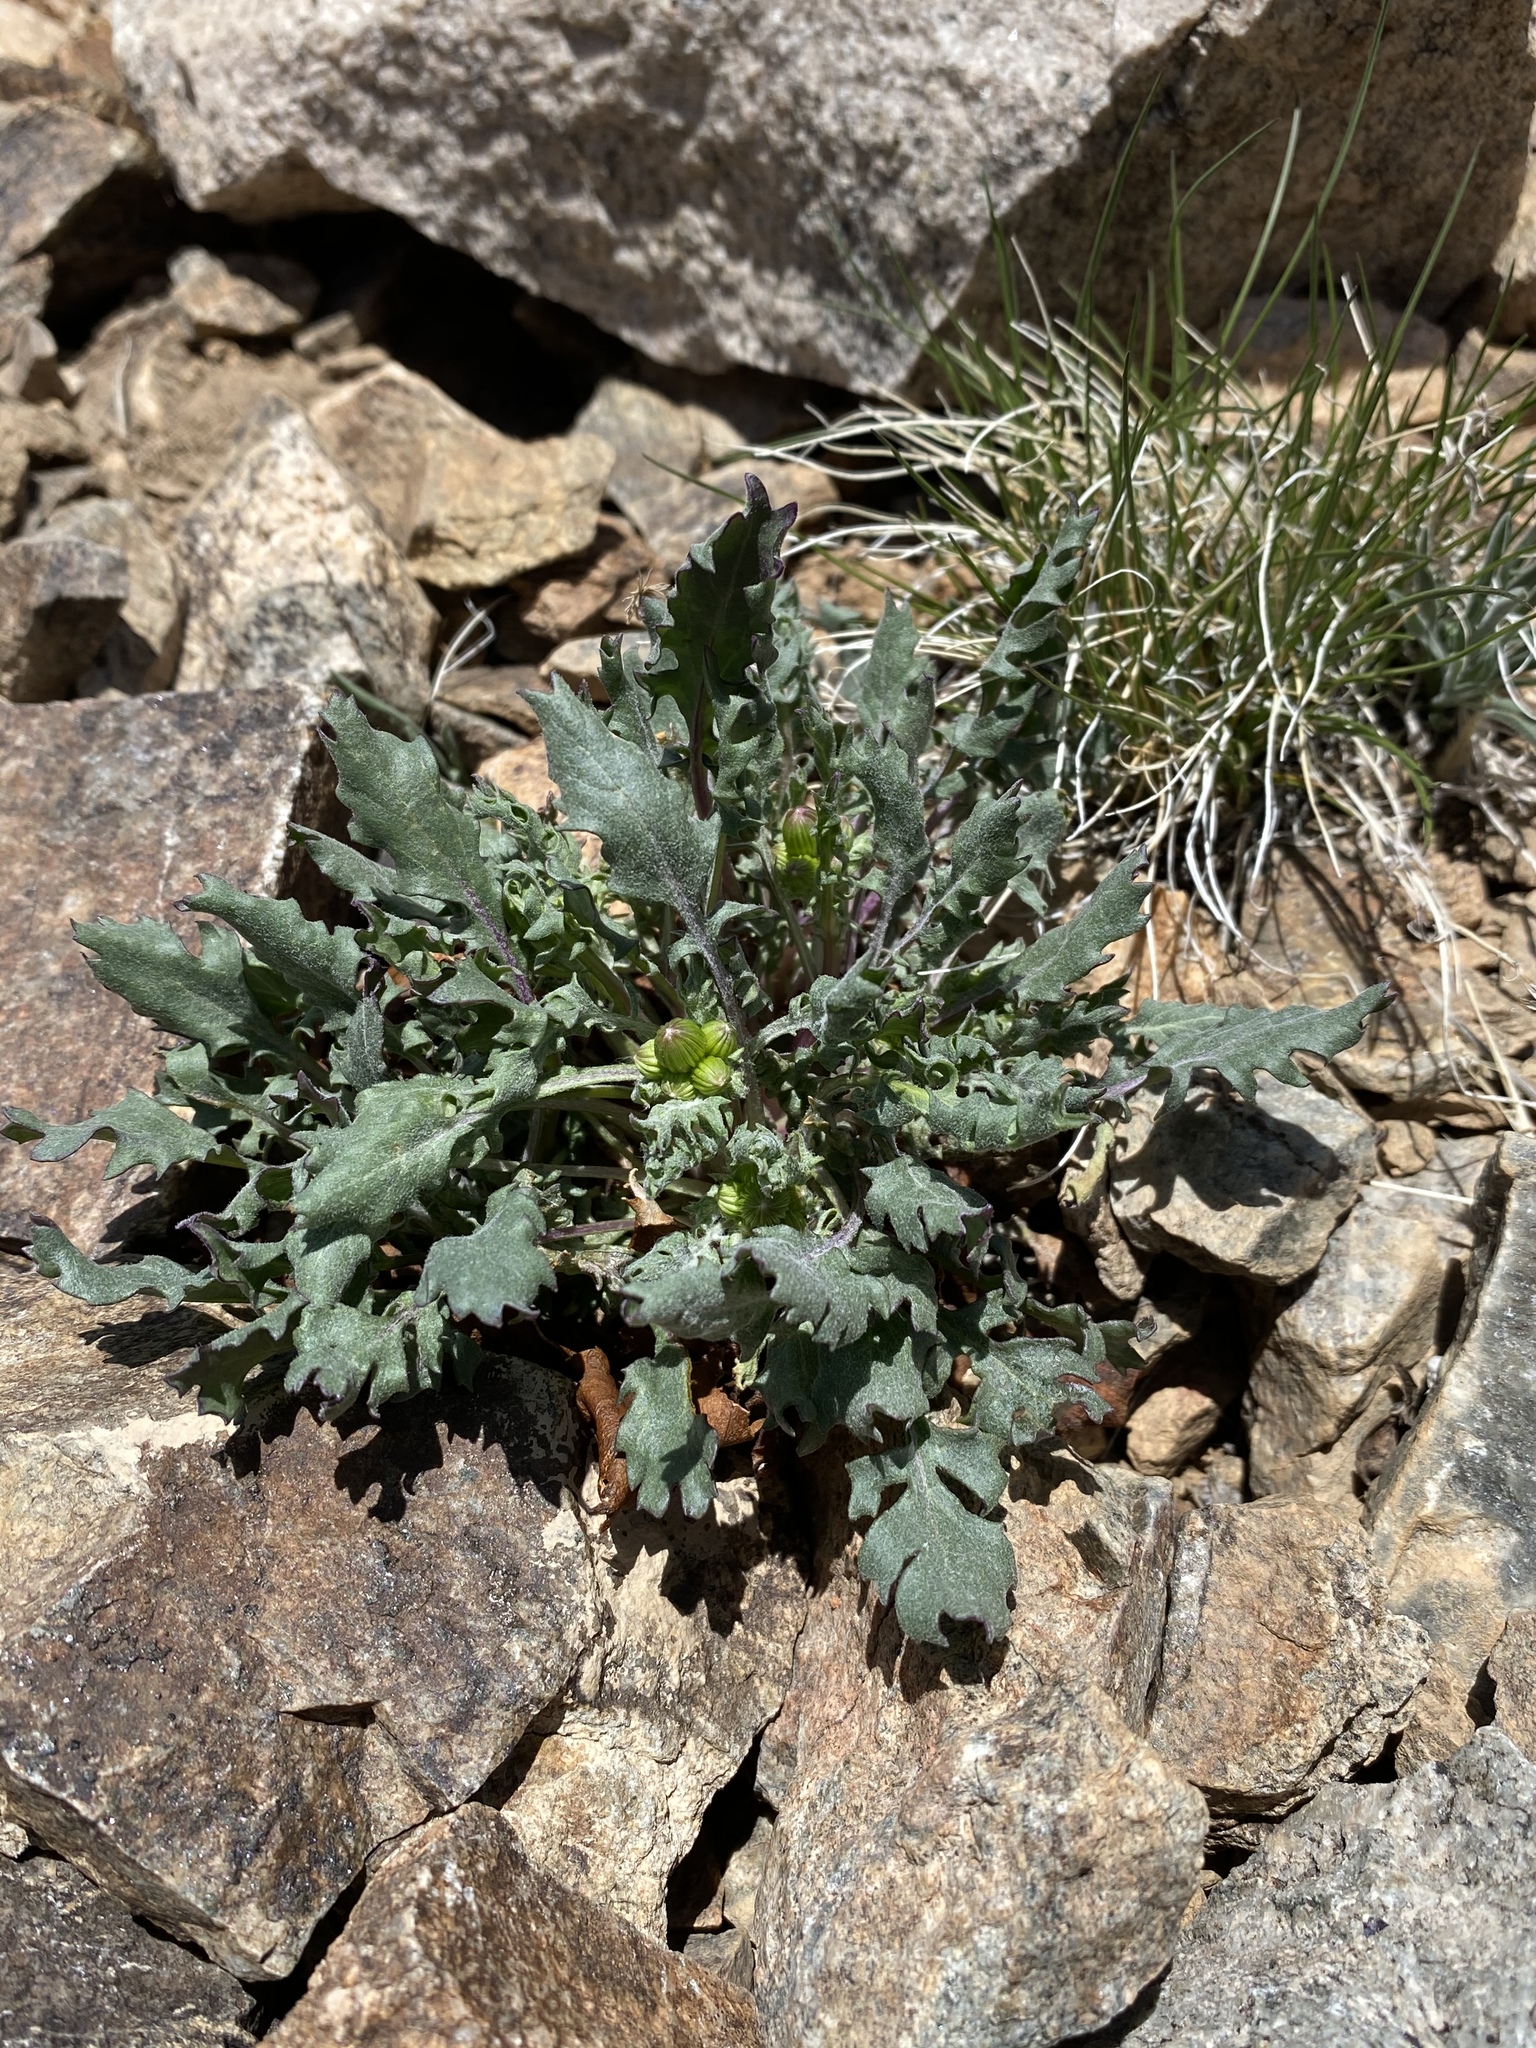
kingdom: Plantae
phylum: Tracheophyta
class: Magnoliopsida
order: Asterales
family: Asteraceae
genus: Packera
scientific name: Packera multilobata
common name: Lobe-leaf groundsel
